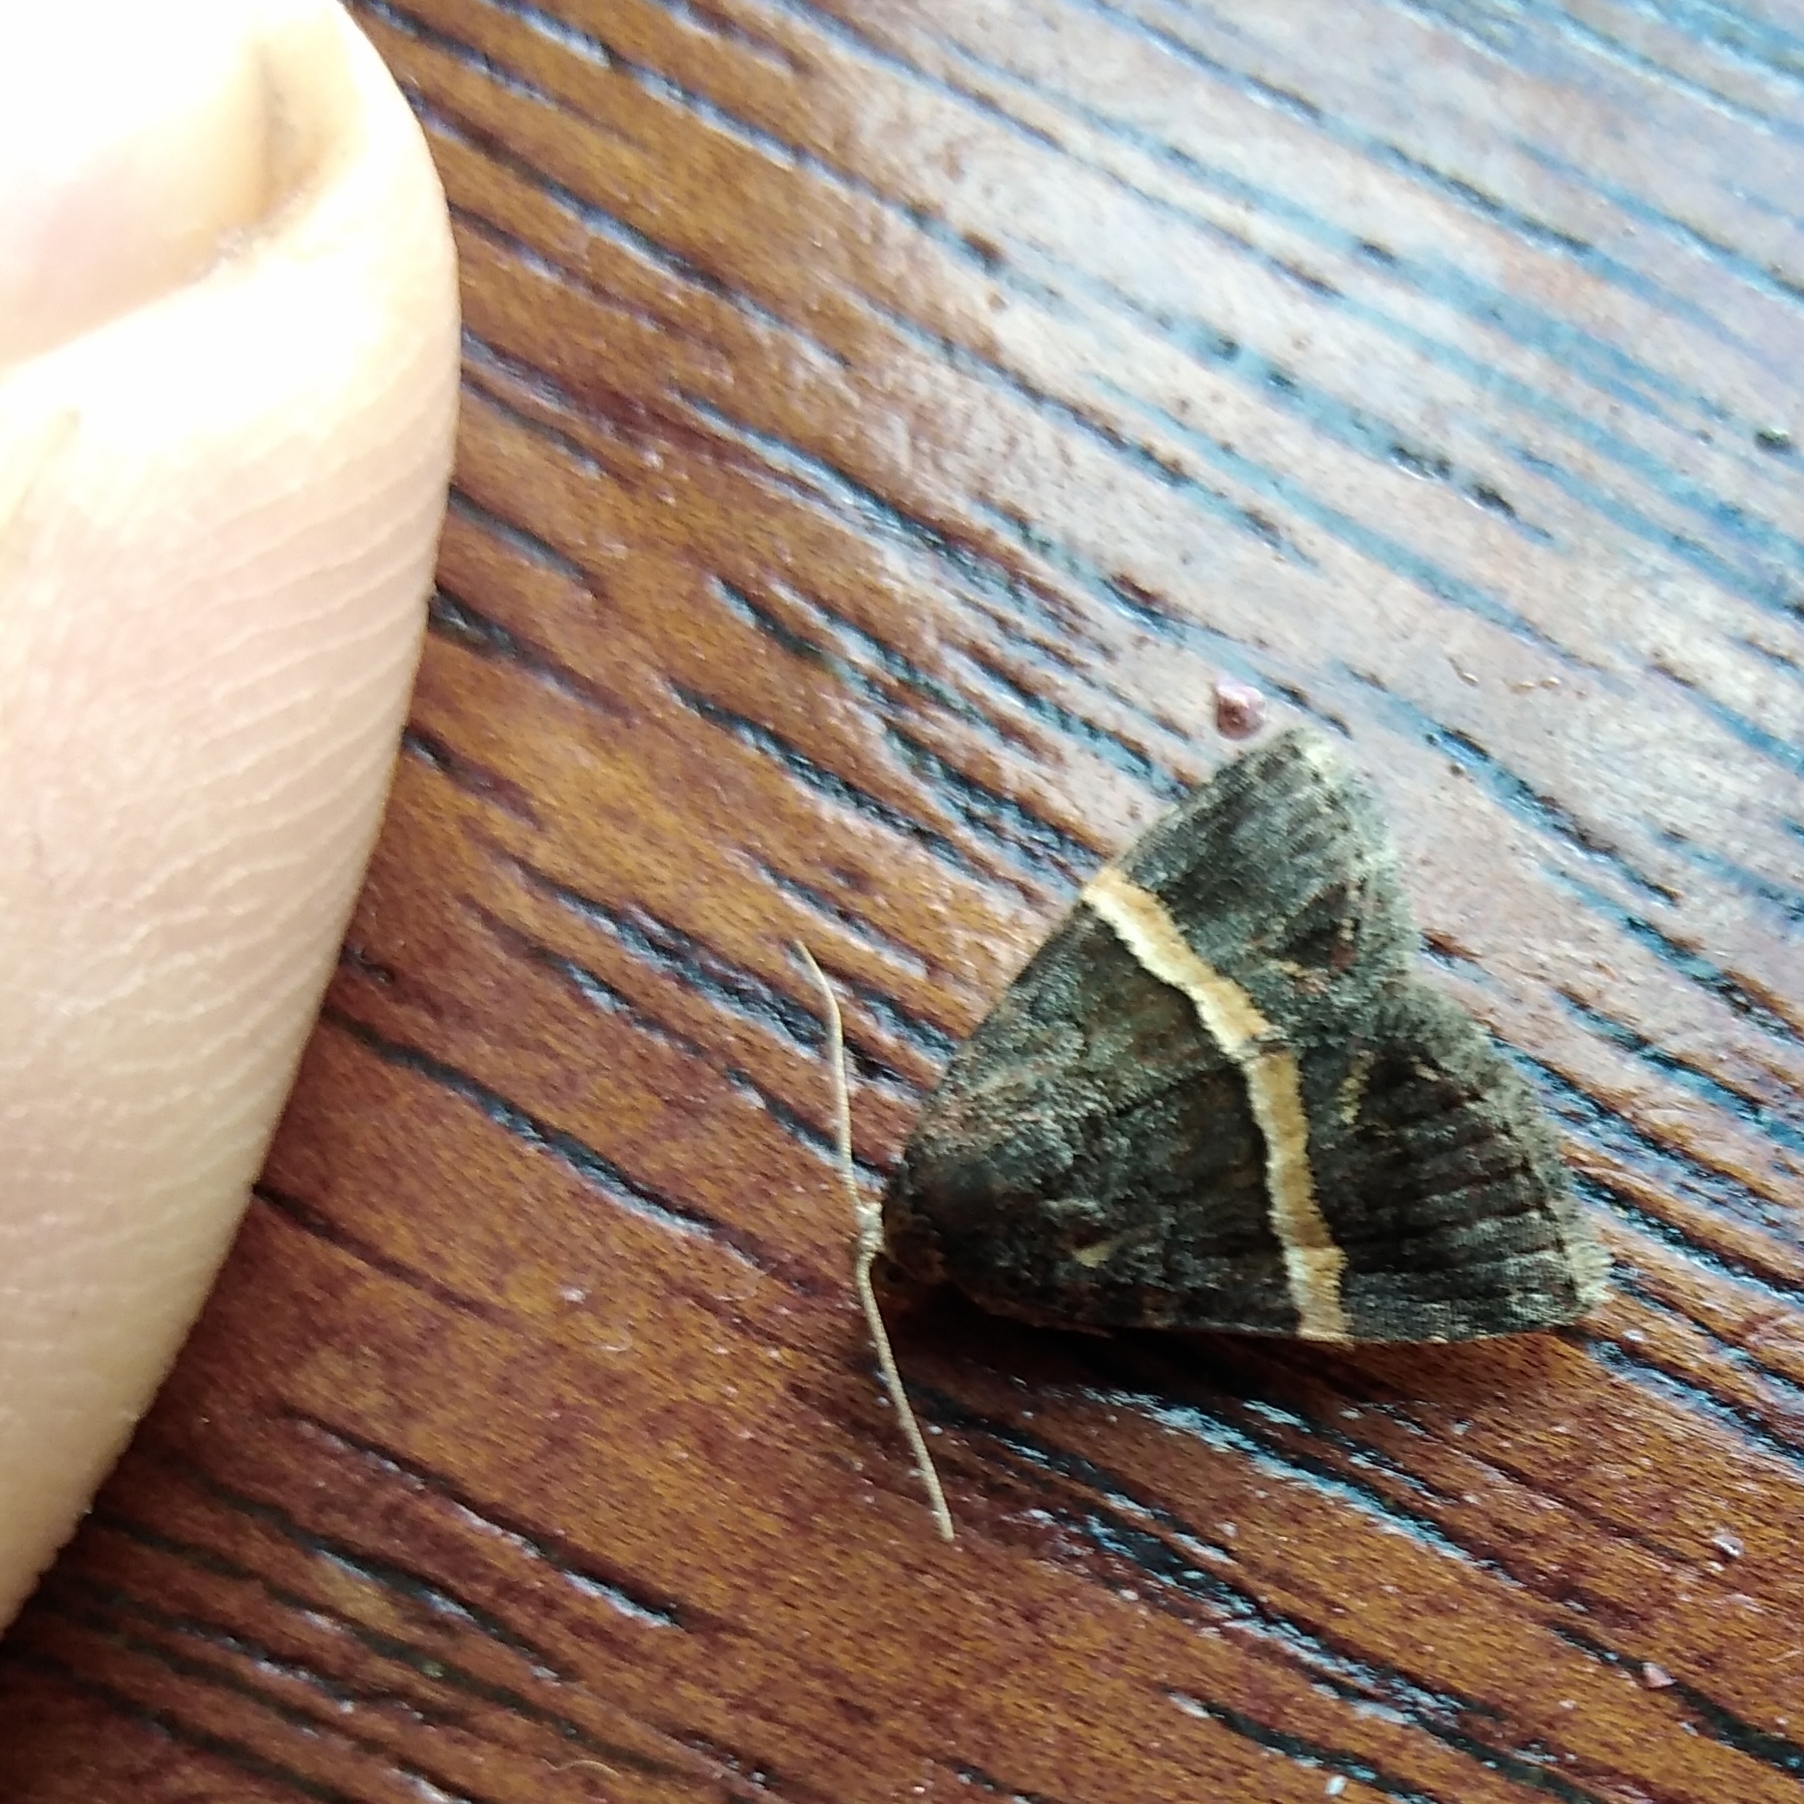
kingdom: Animalia
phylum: Arthropoda
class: Insecta
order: Lepidoptera
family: Noctuidae
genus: Ozarba
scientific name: Ozarba abscissa
